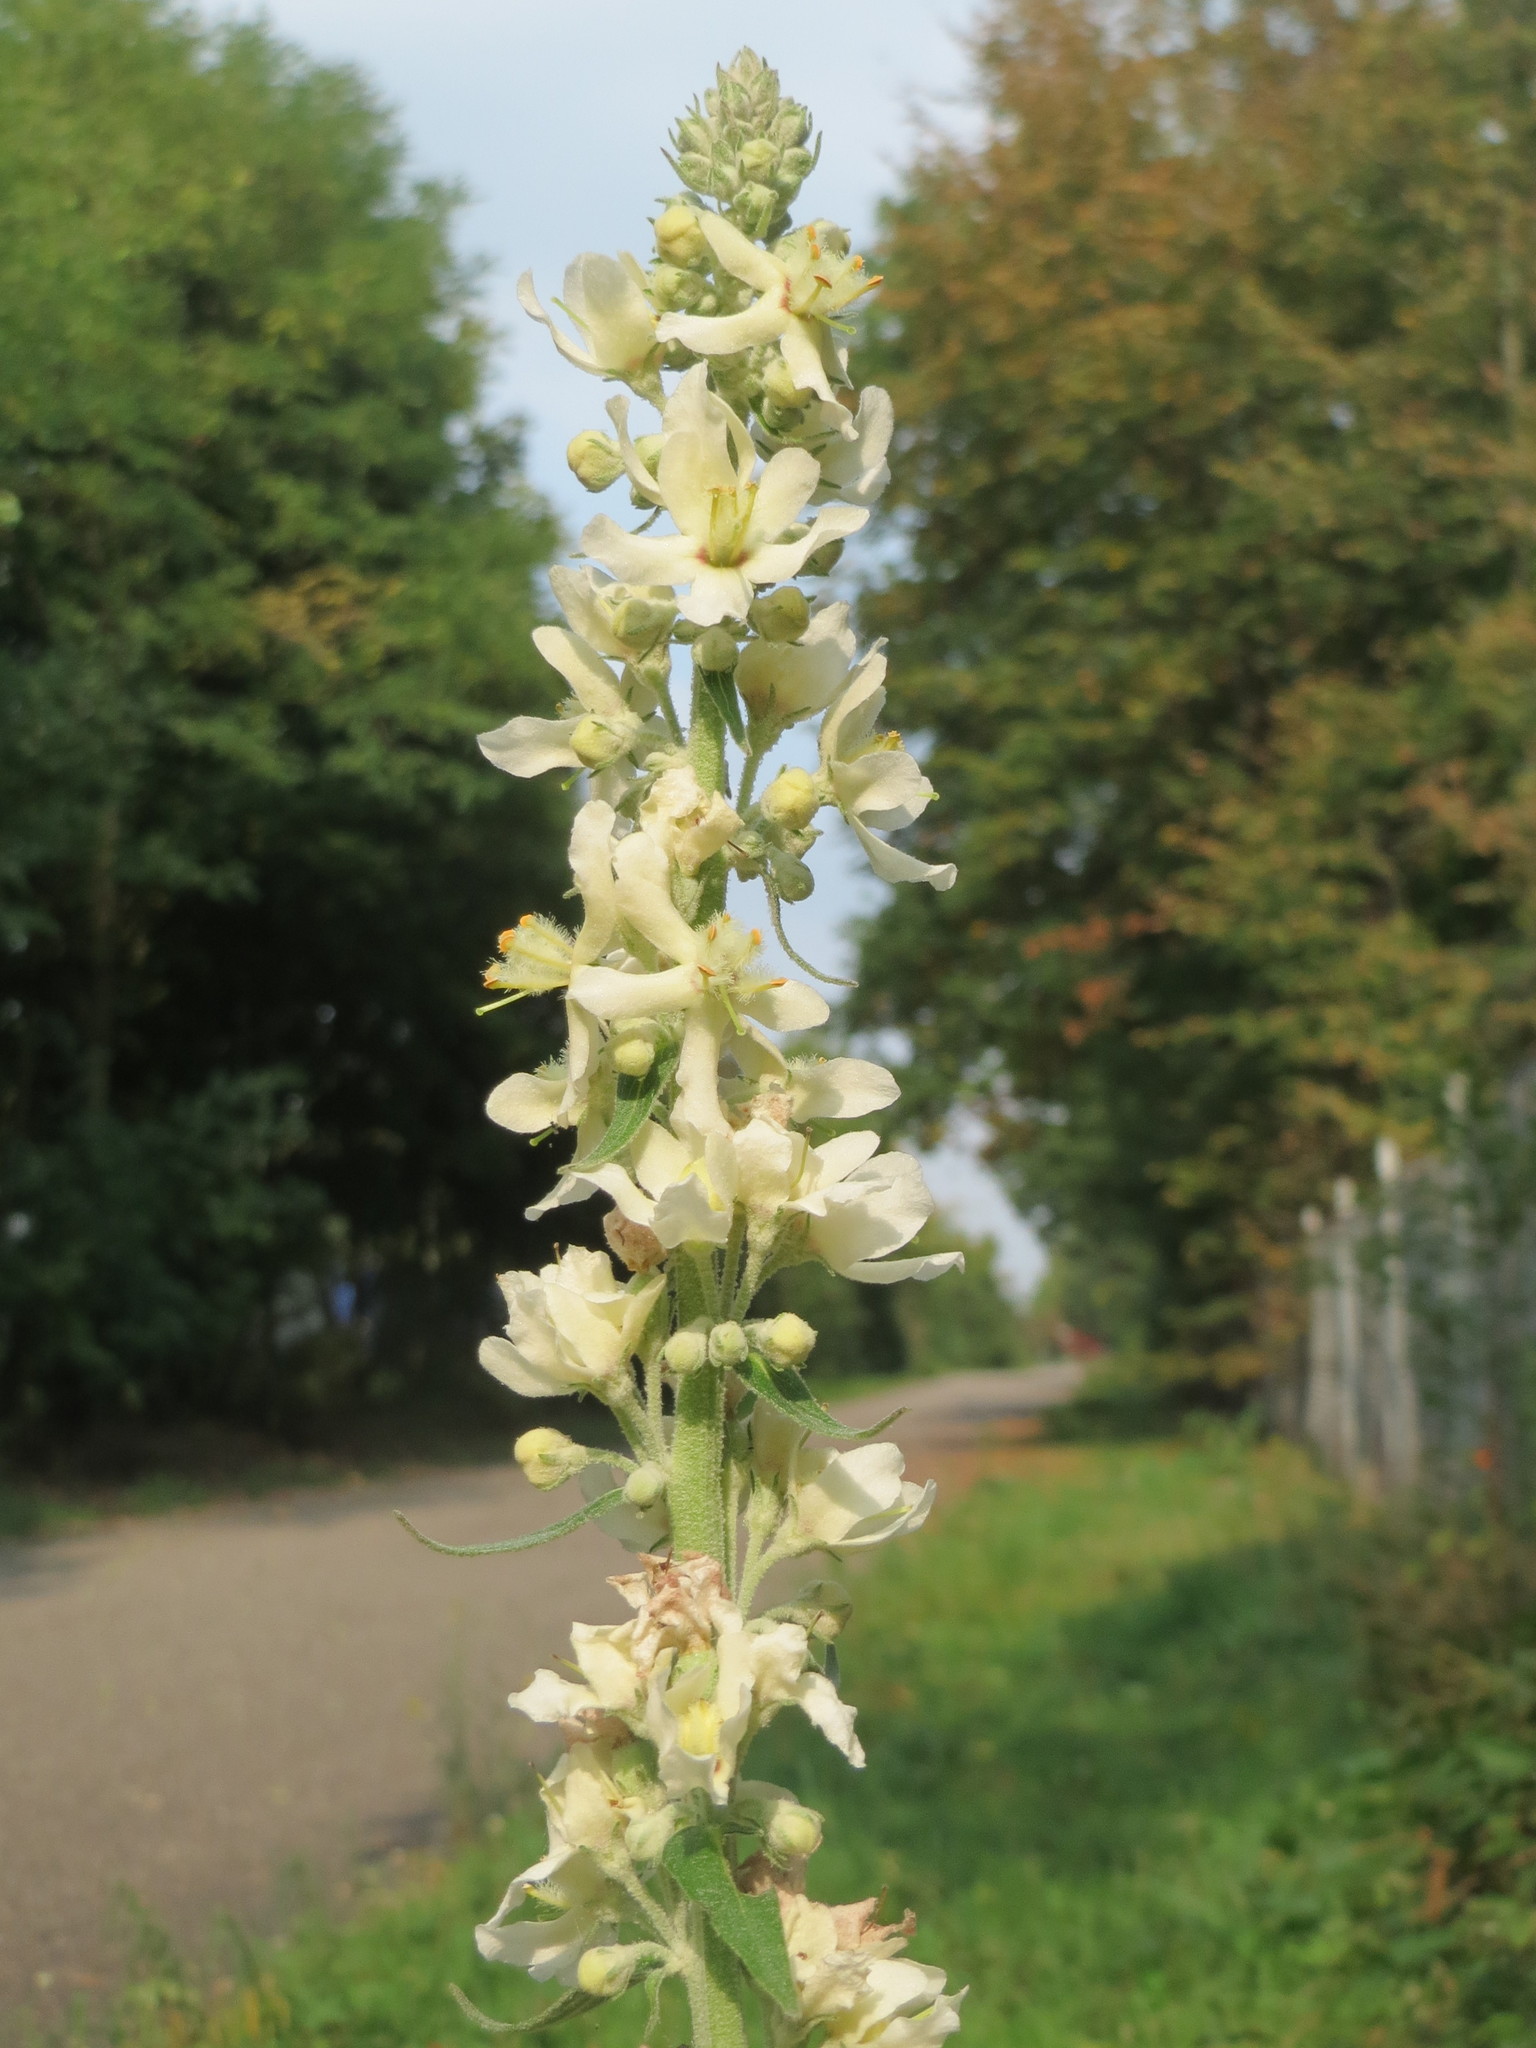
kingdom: Plantae
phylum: Tracheophyta
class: Magnoliopsida
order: Lamiales
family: Scrophulariaceae
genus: Verbascum
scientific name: Verbascum lychnitis
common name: White mullein
